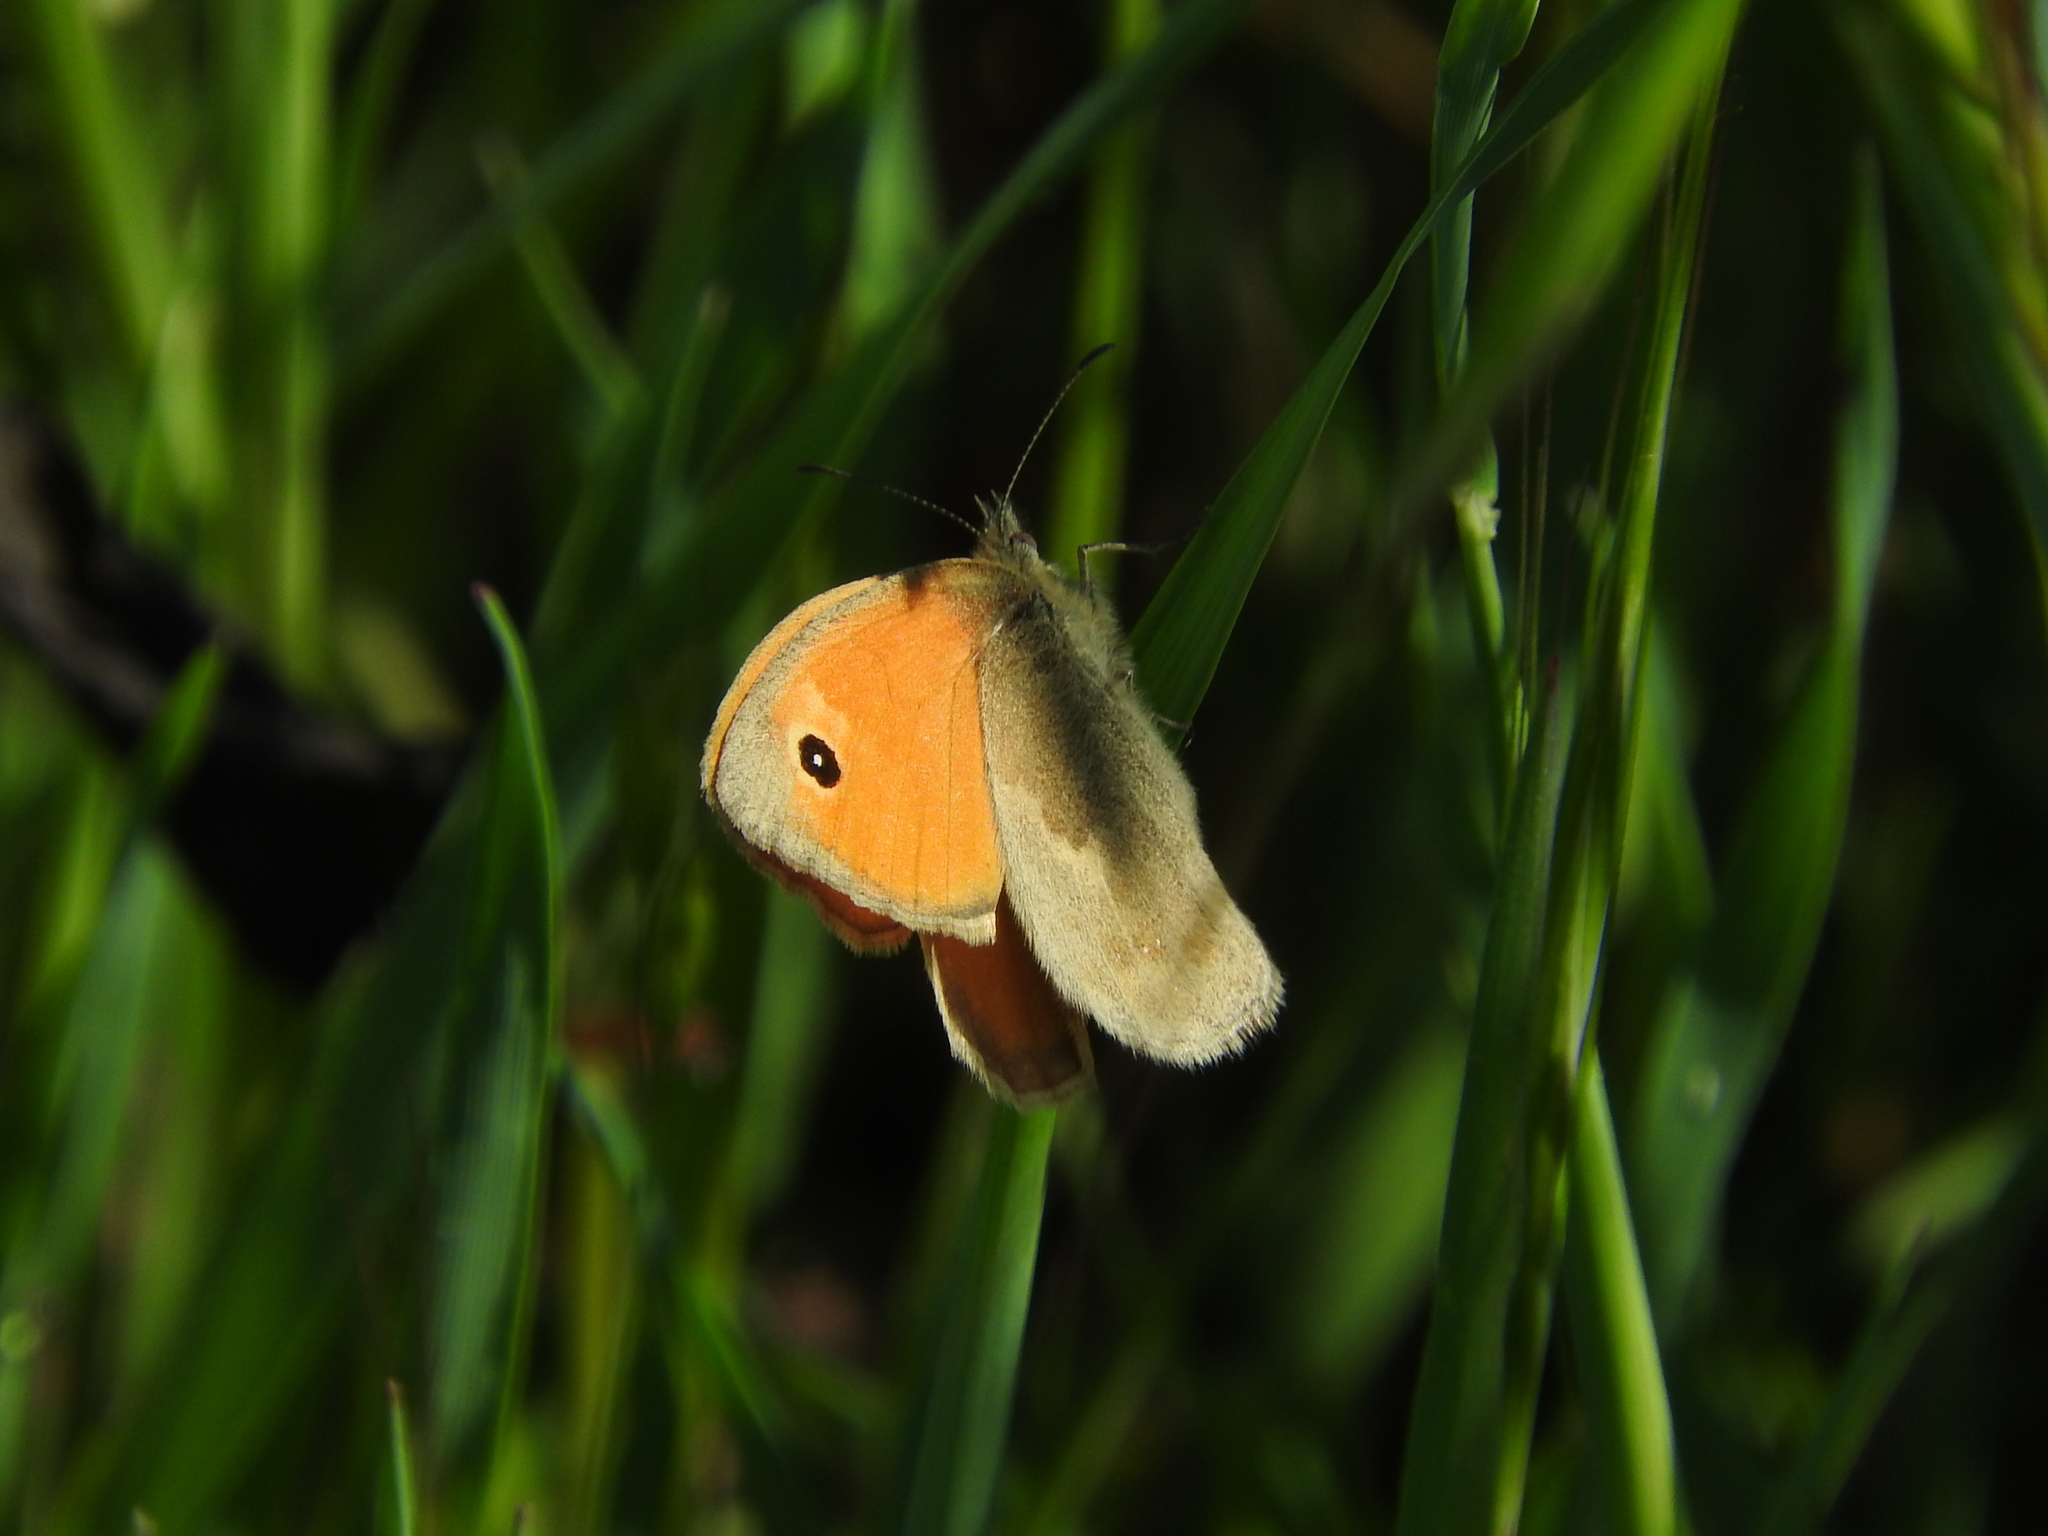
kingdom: Animalia
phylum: Arthropoda
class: Insecta
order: Lepidoptera
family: Nymphalidae
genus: Coenonympha
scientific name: Coenonympha pamphilus
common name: Small heath
